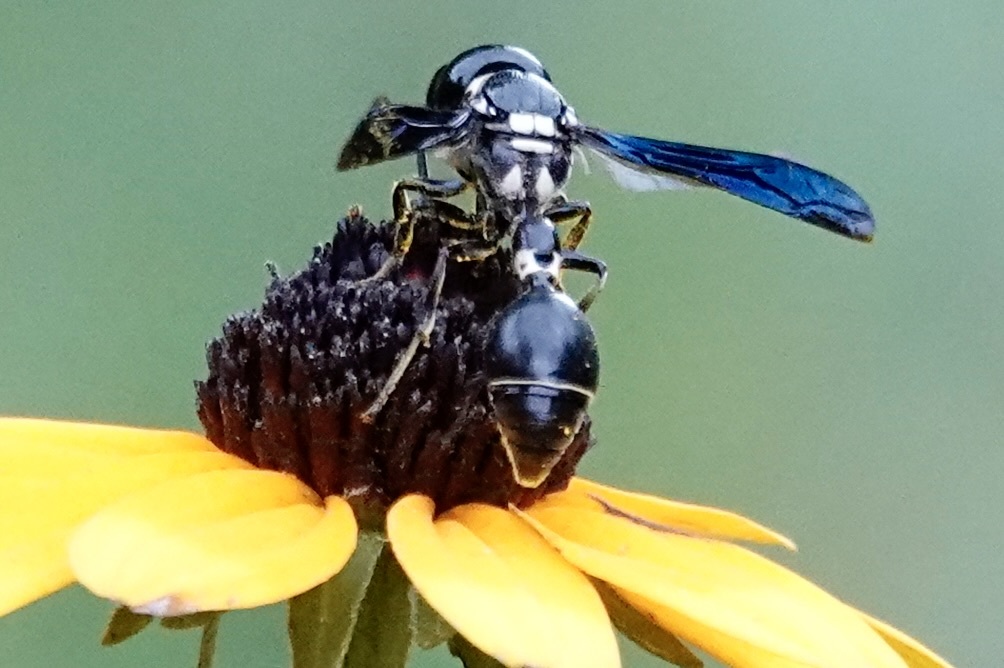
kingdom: Animalia
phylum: Arthropoda
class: Insecta
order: Hymenoptera
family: Eumenidae
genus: Zethus
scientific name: Zethus spinipes
